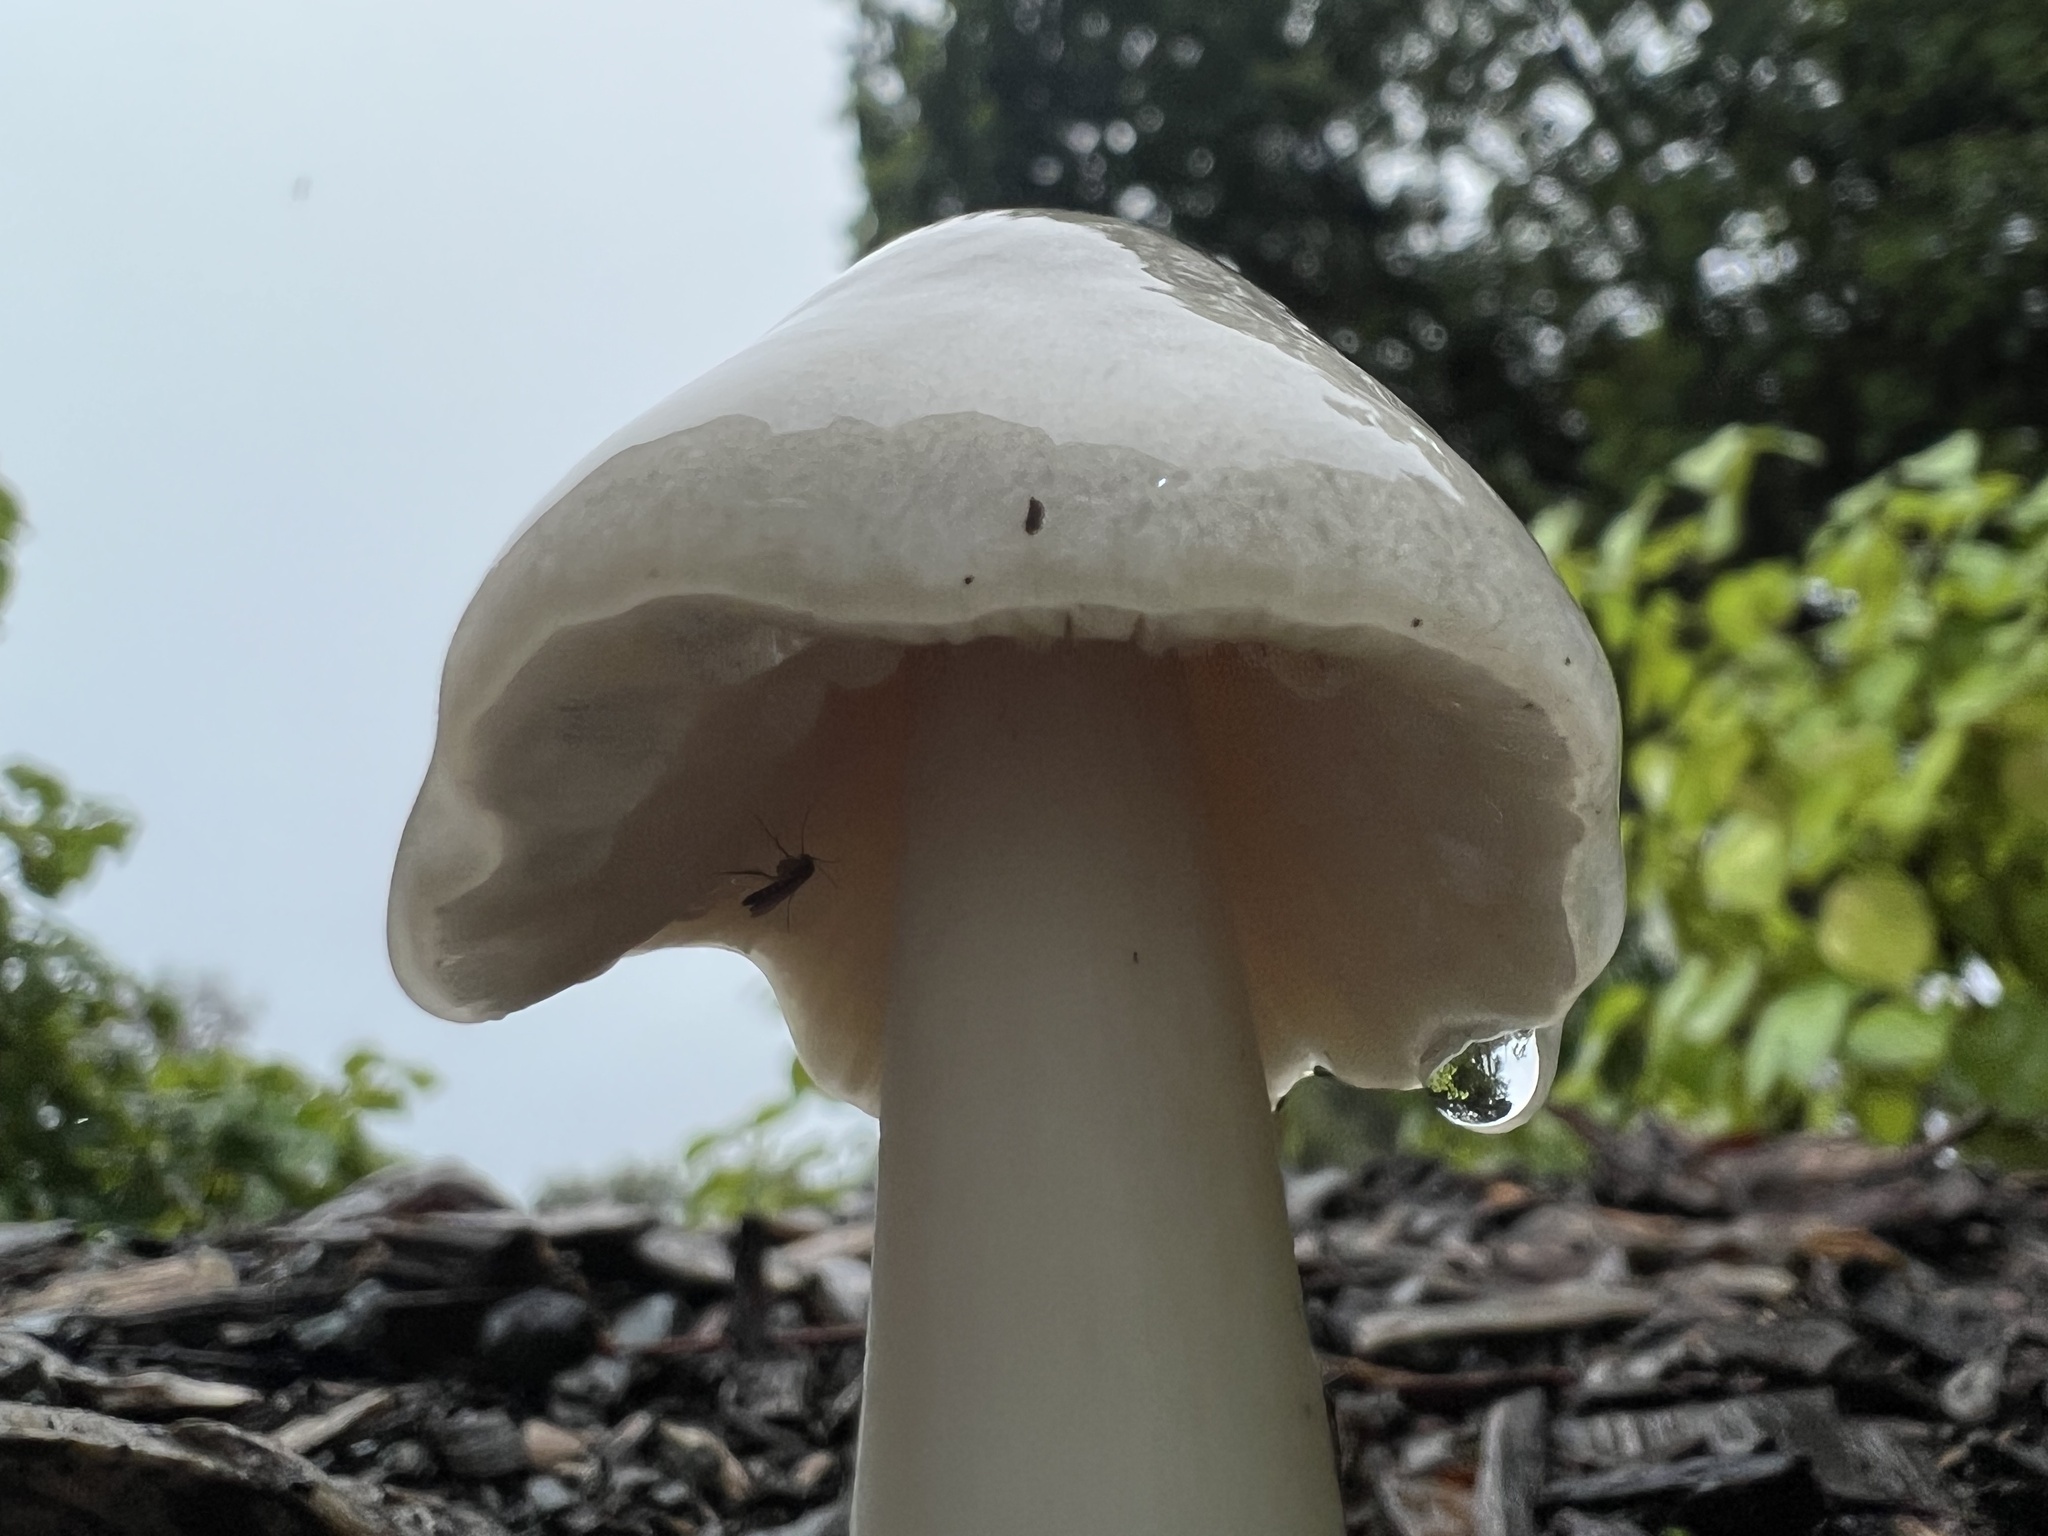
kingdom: Fungi
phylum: Basidiomycota
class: Agaricomycetes
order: Agaricales
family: Pluteaceae
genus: Volvopluteus
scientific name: Volvopluteus gloiocephalus
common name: Stubble rosegill
